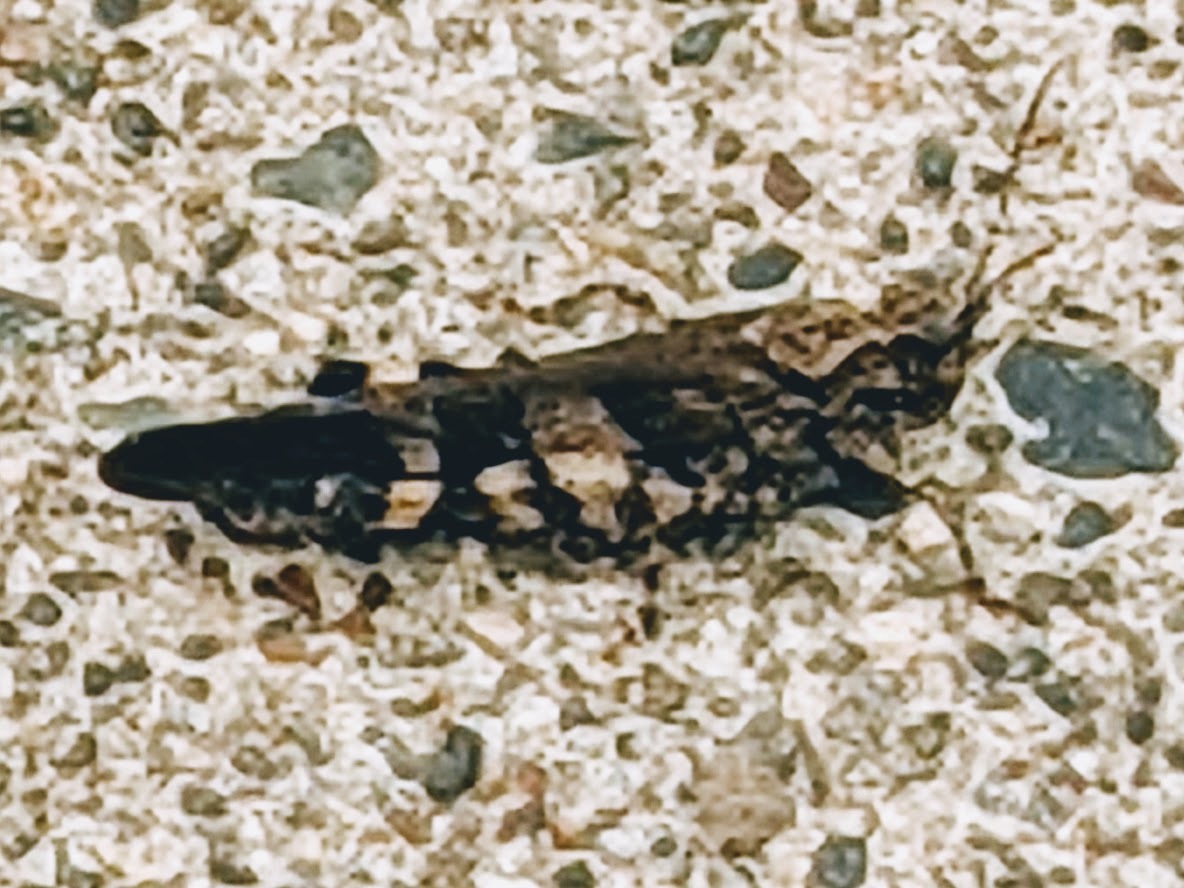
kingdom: Animalia
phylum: Arthropoda
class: Insecta
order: Orthoptera
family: Acrididae
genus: Trimerotropis
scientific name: Trimerotropis fontana
